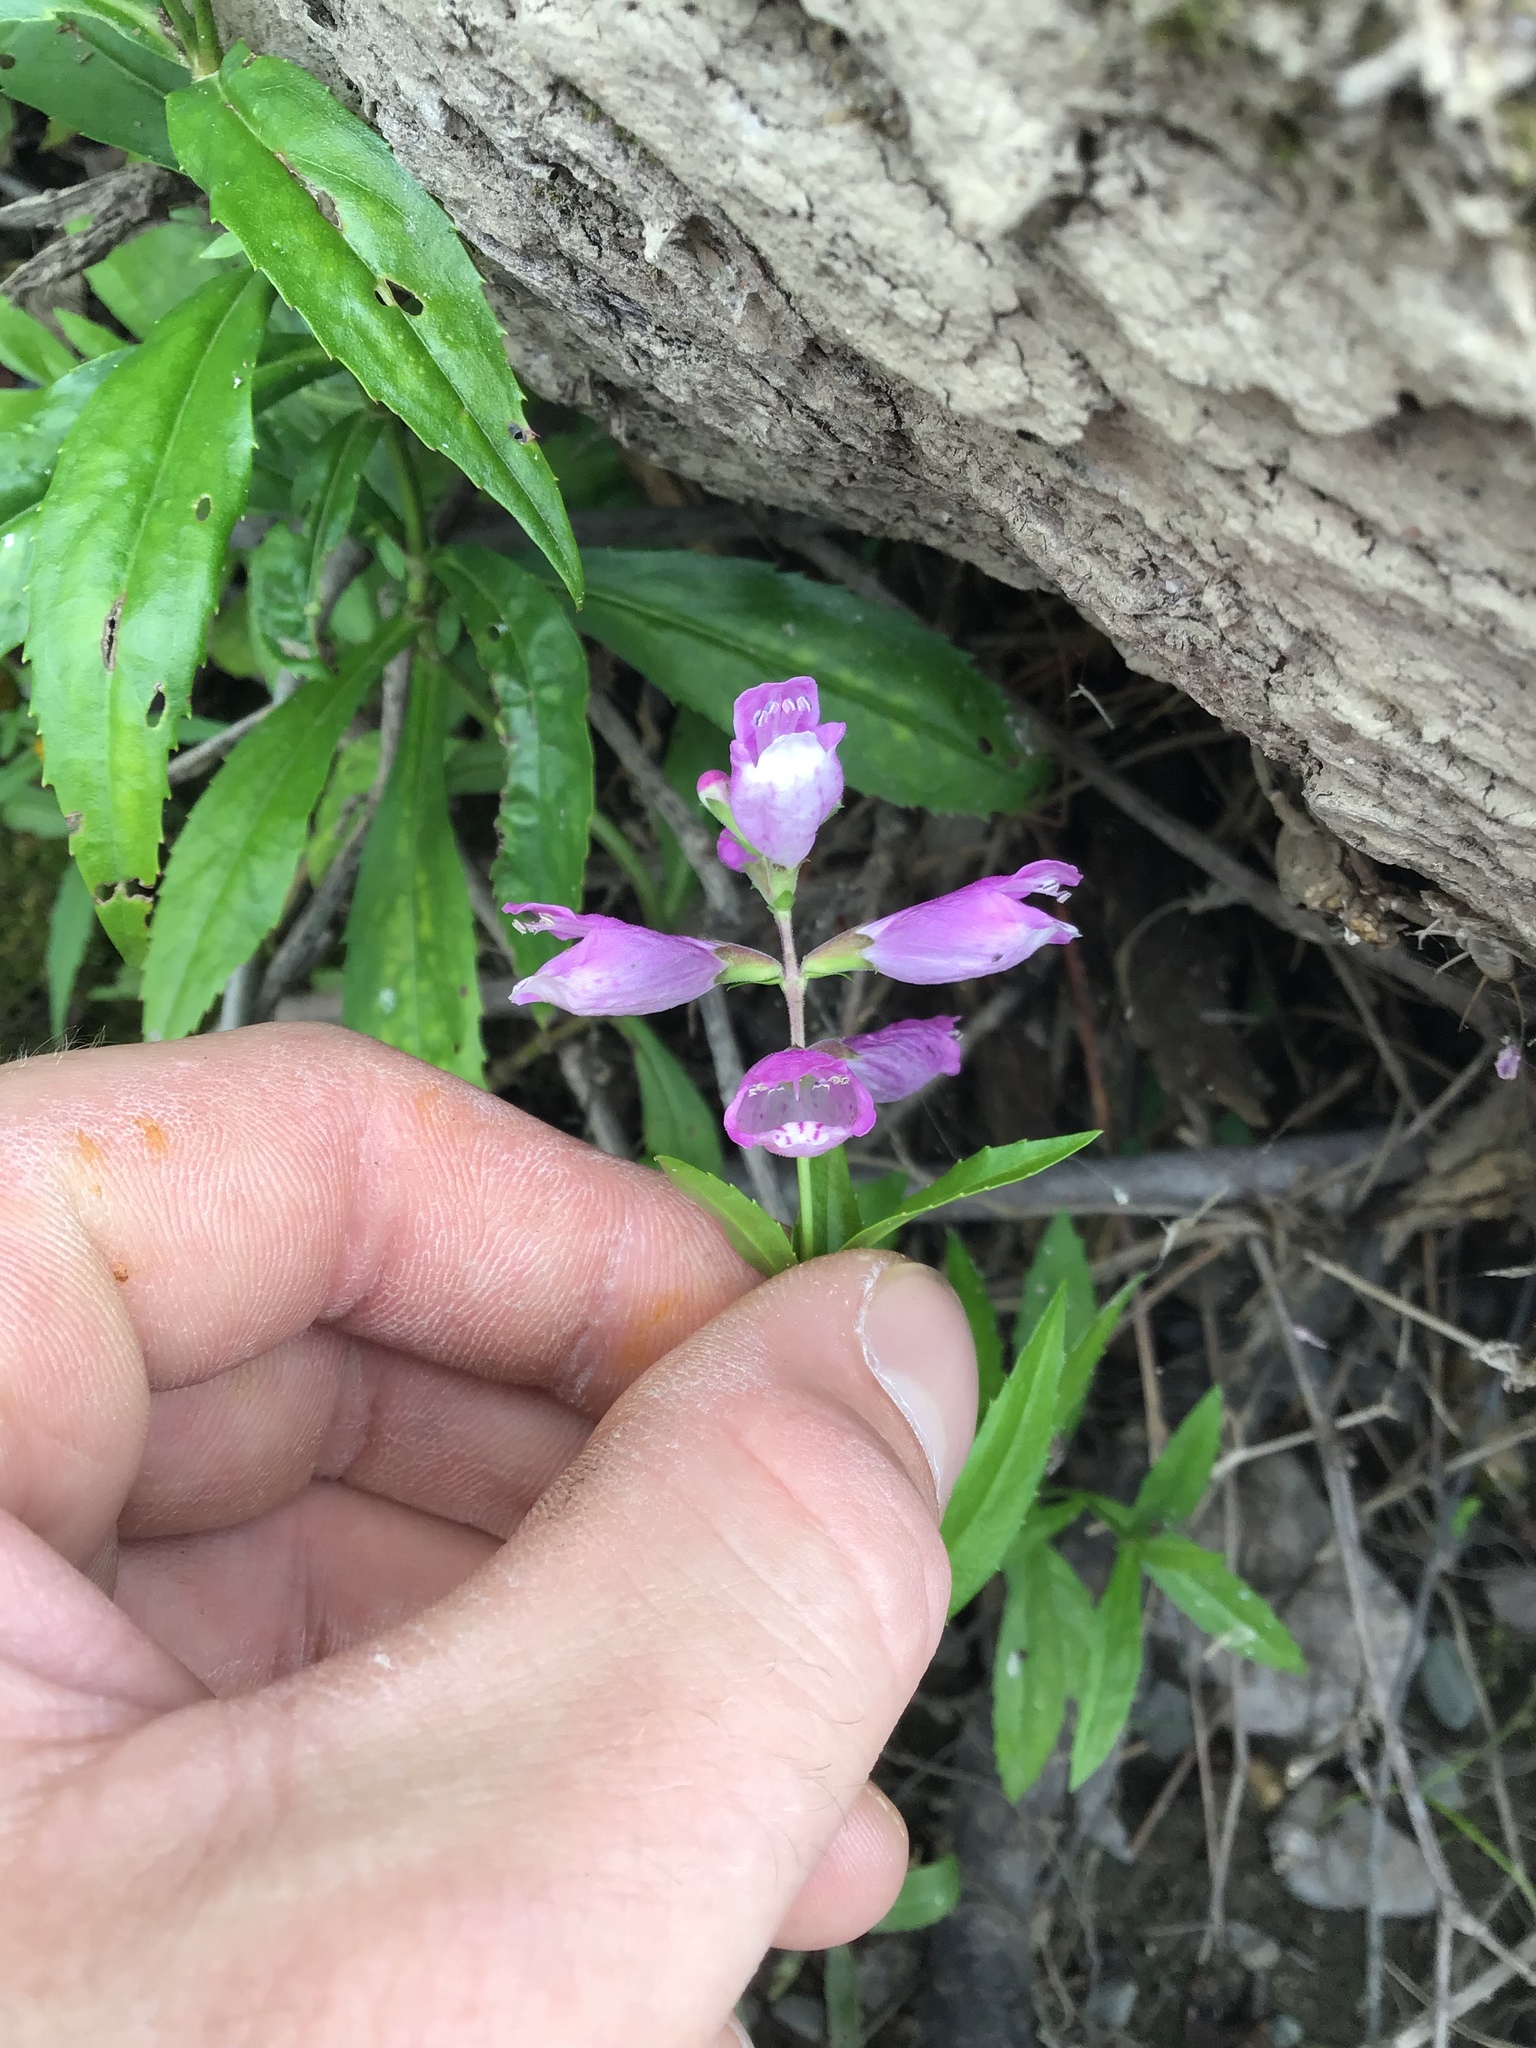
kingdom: Plantae
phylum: Tracheophyta
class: Magnoliopsida
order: Lamiales
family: Lamiaceae
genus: Physostegia
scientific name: Physostegia virginiana
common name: Obedient-plant
